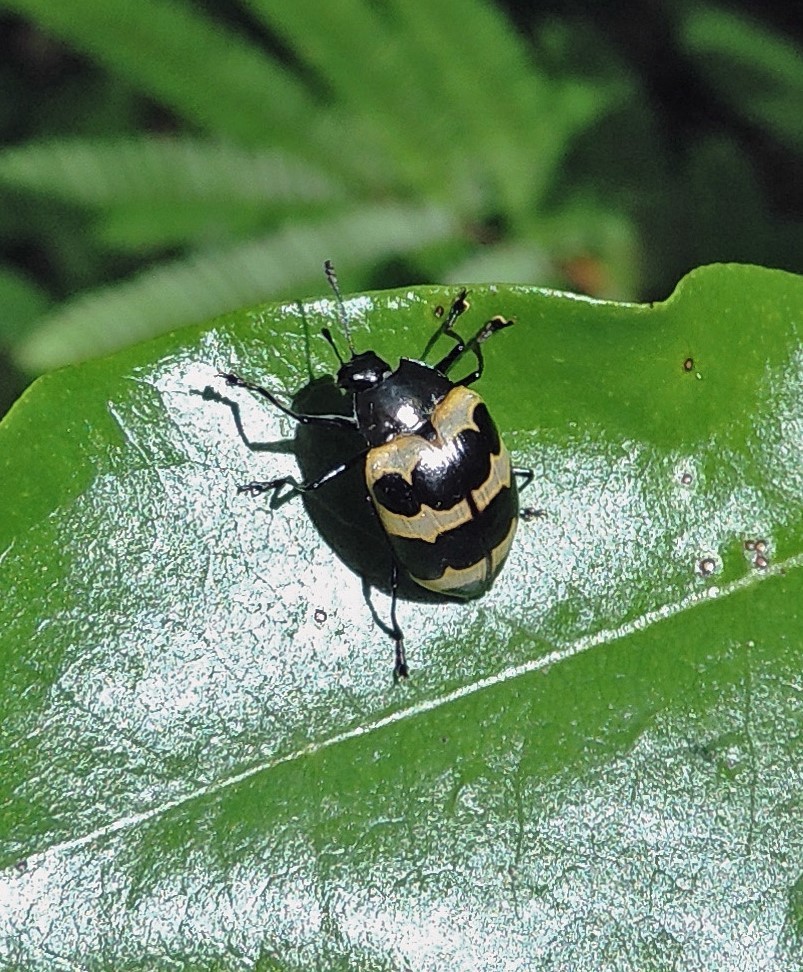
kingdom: Animalia
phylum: Arthropoda
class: Insecta
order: Coleoptera
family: Erotylidae
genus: Oligocorynus
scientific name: Oligocorynus
